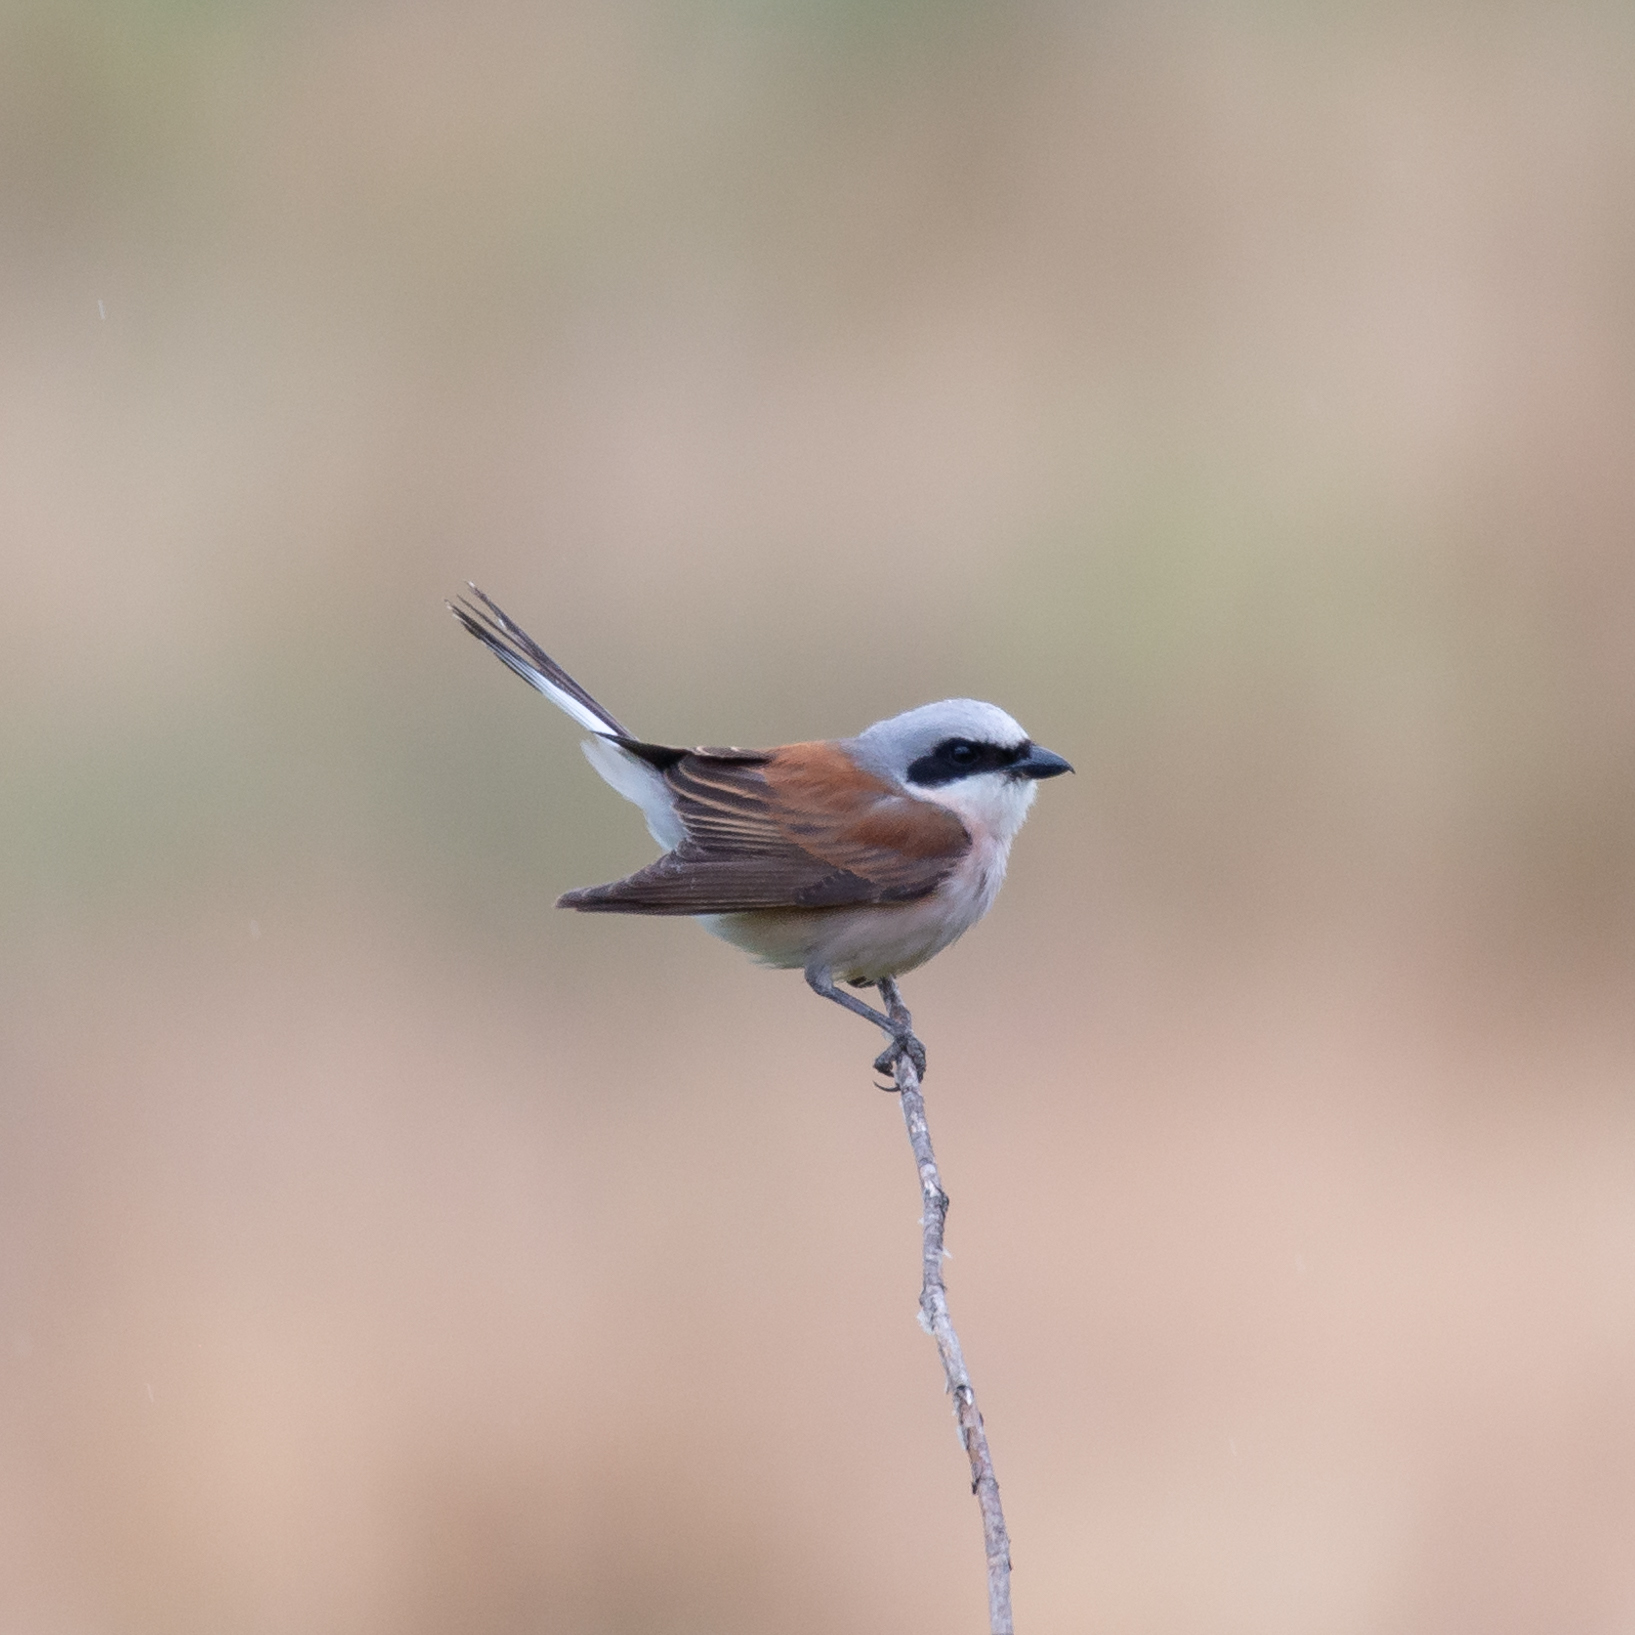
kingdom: Animalia
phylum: Chordata
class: Aves
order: Passeriformes
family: Laniidae
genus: Lanius
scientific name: Lanius collurio
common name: Red-backed shrike
